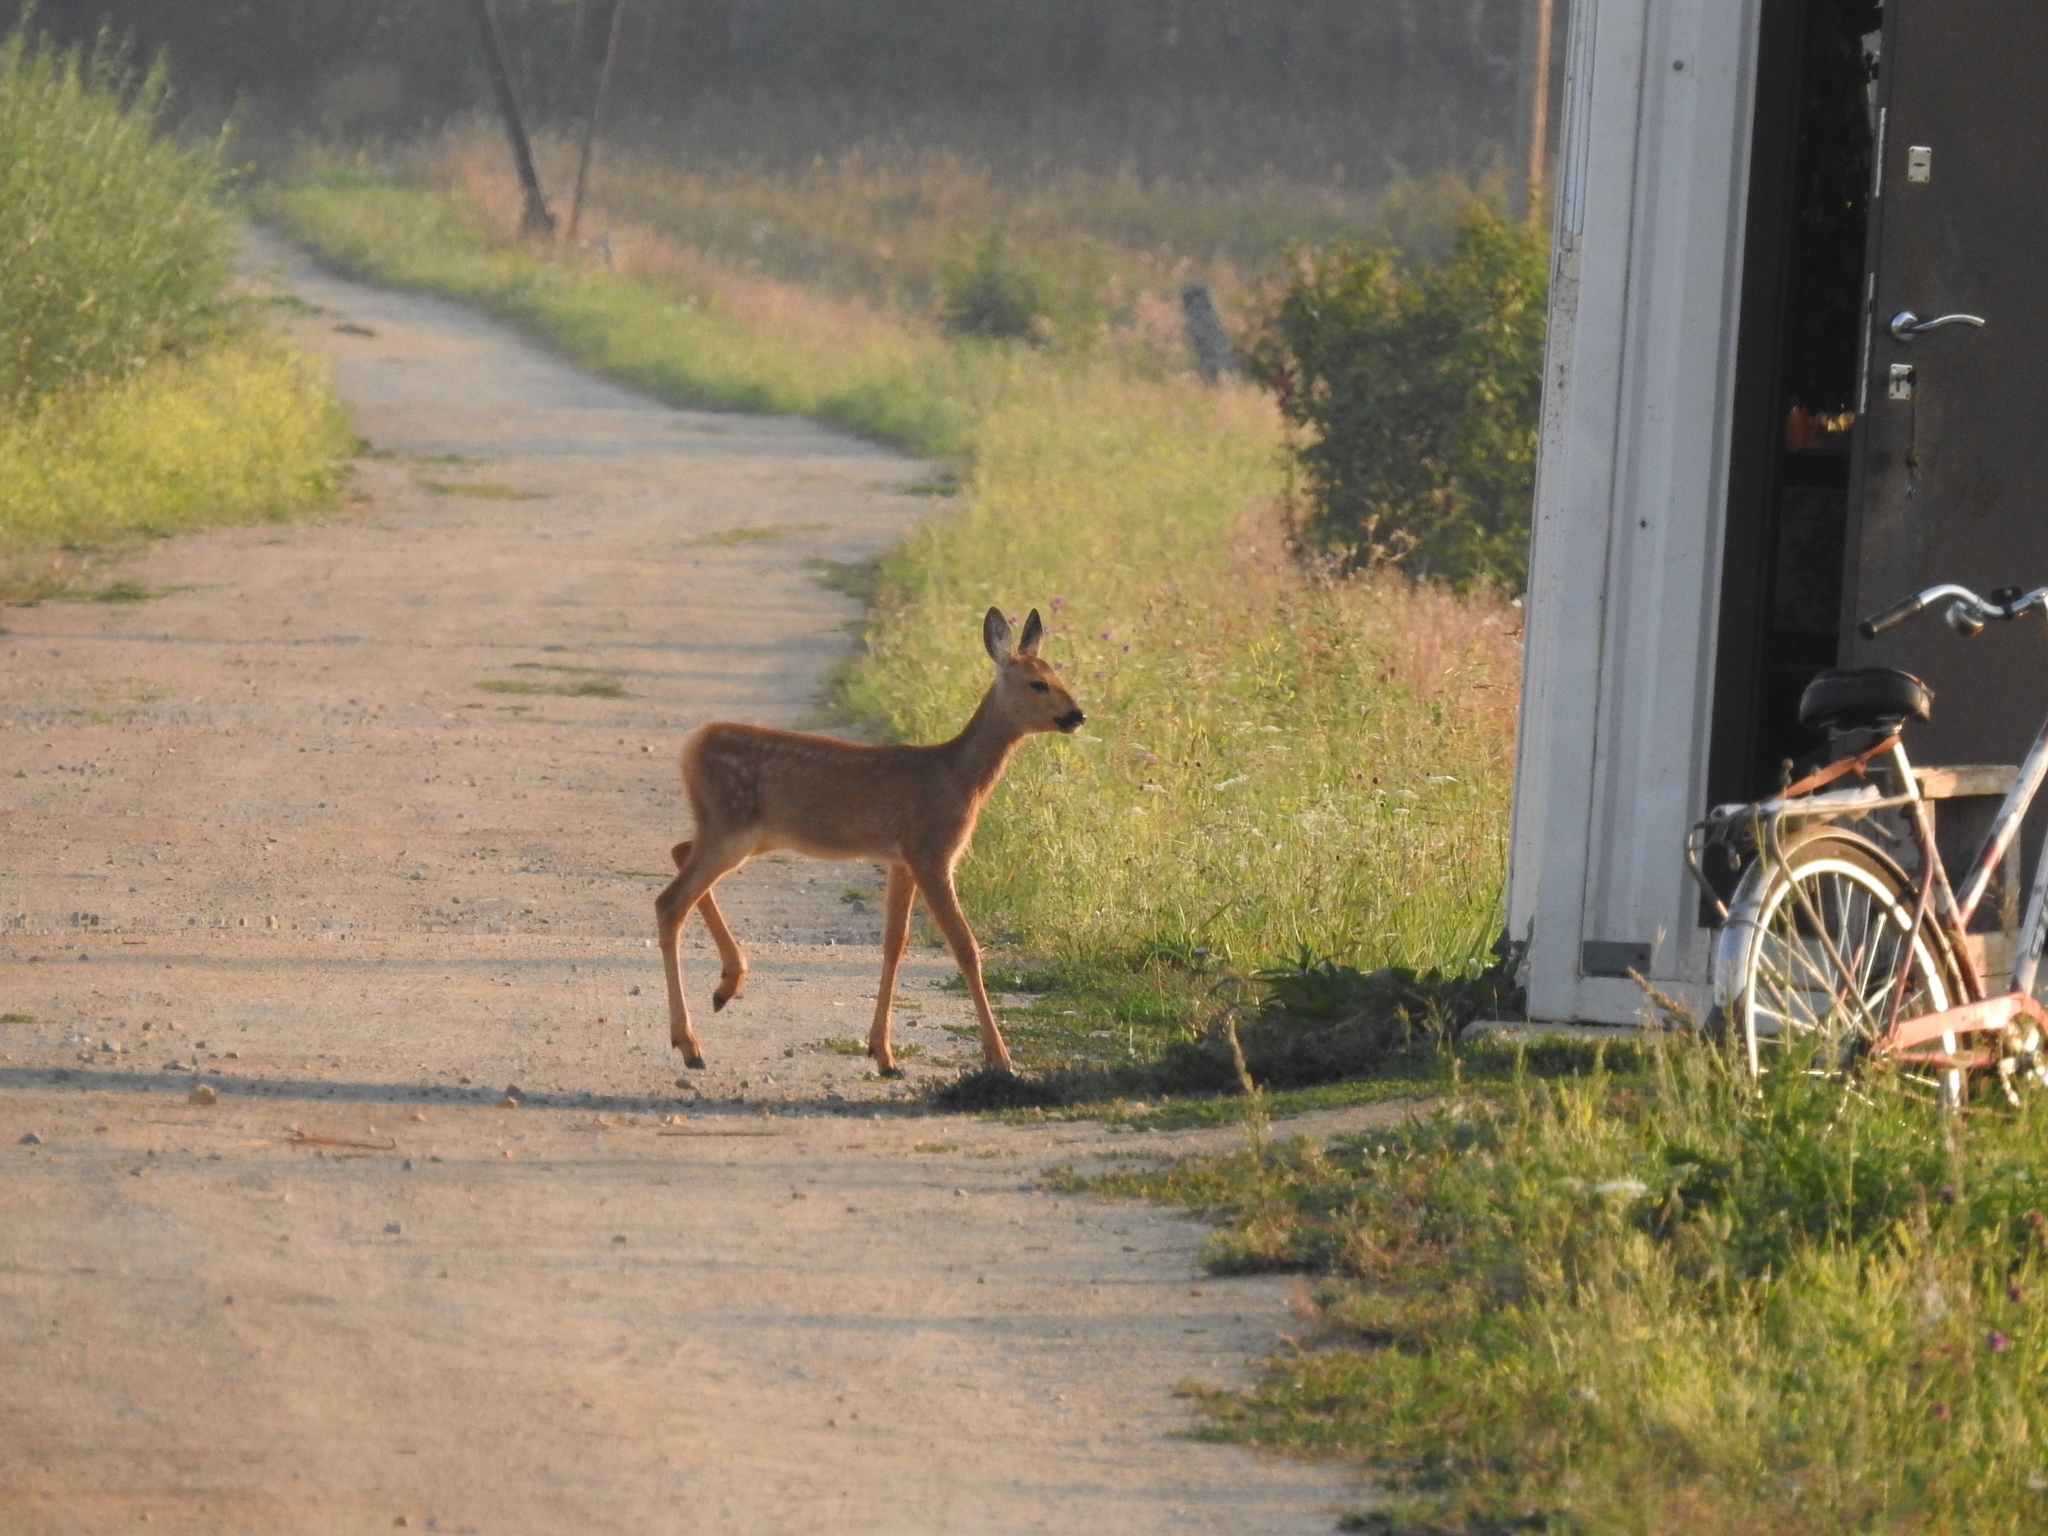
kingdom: Animalia
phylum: Chordata
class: Mammalia
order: Artiodactyla
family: Cervidae
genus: Capreolus
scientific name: Capreolus pygargus
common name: Siberian roe
